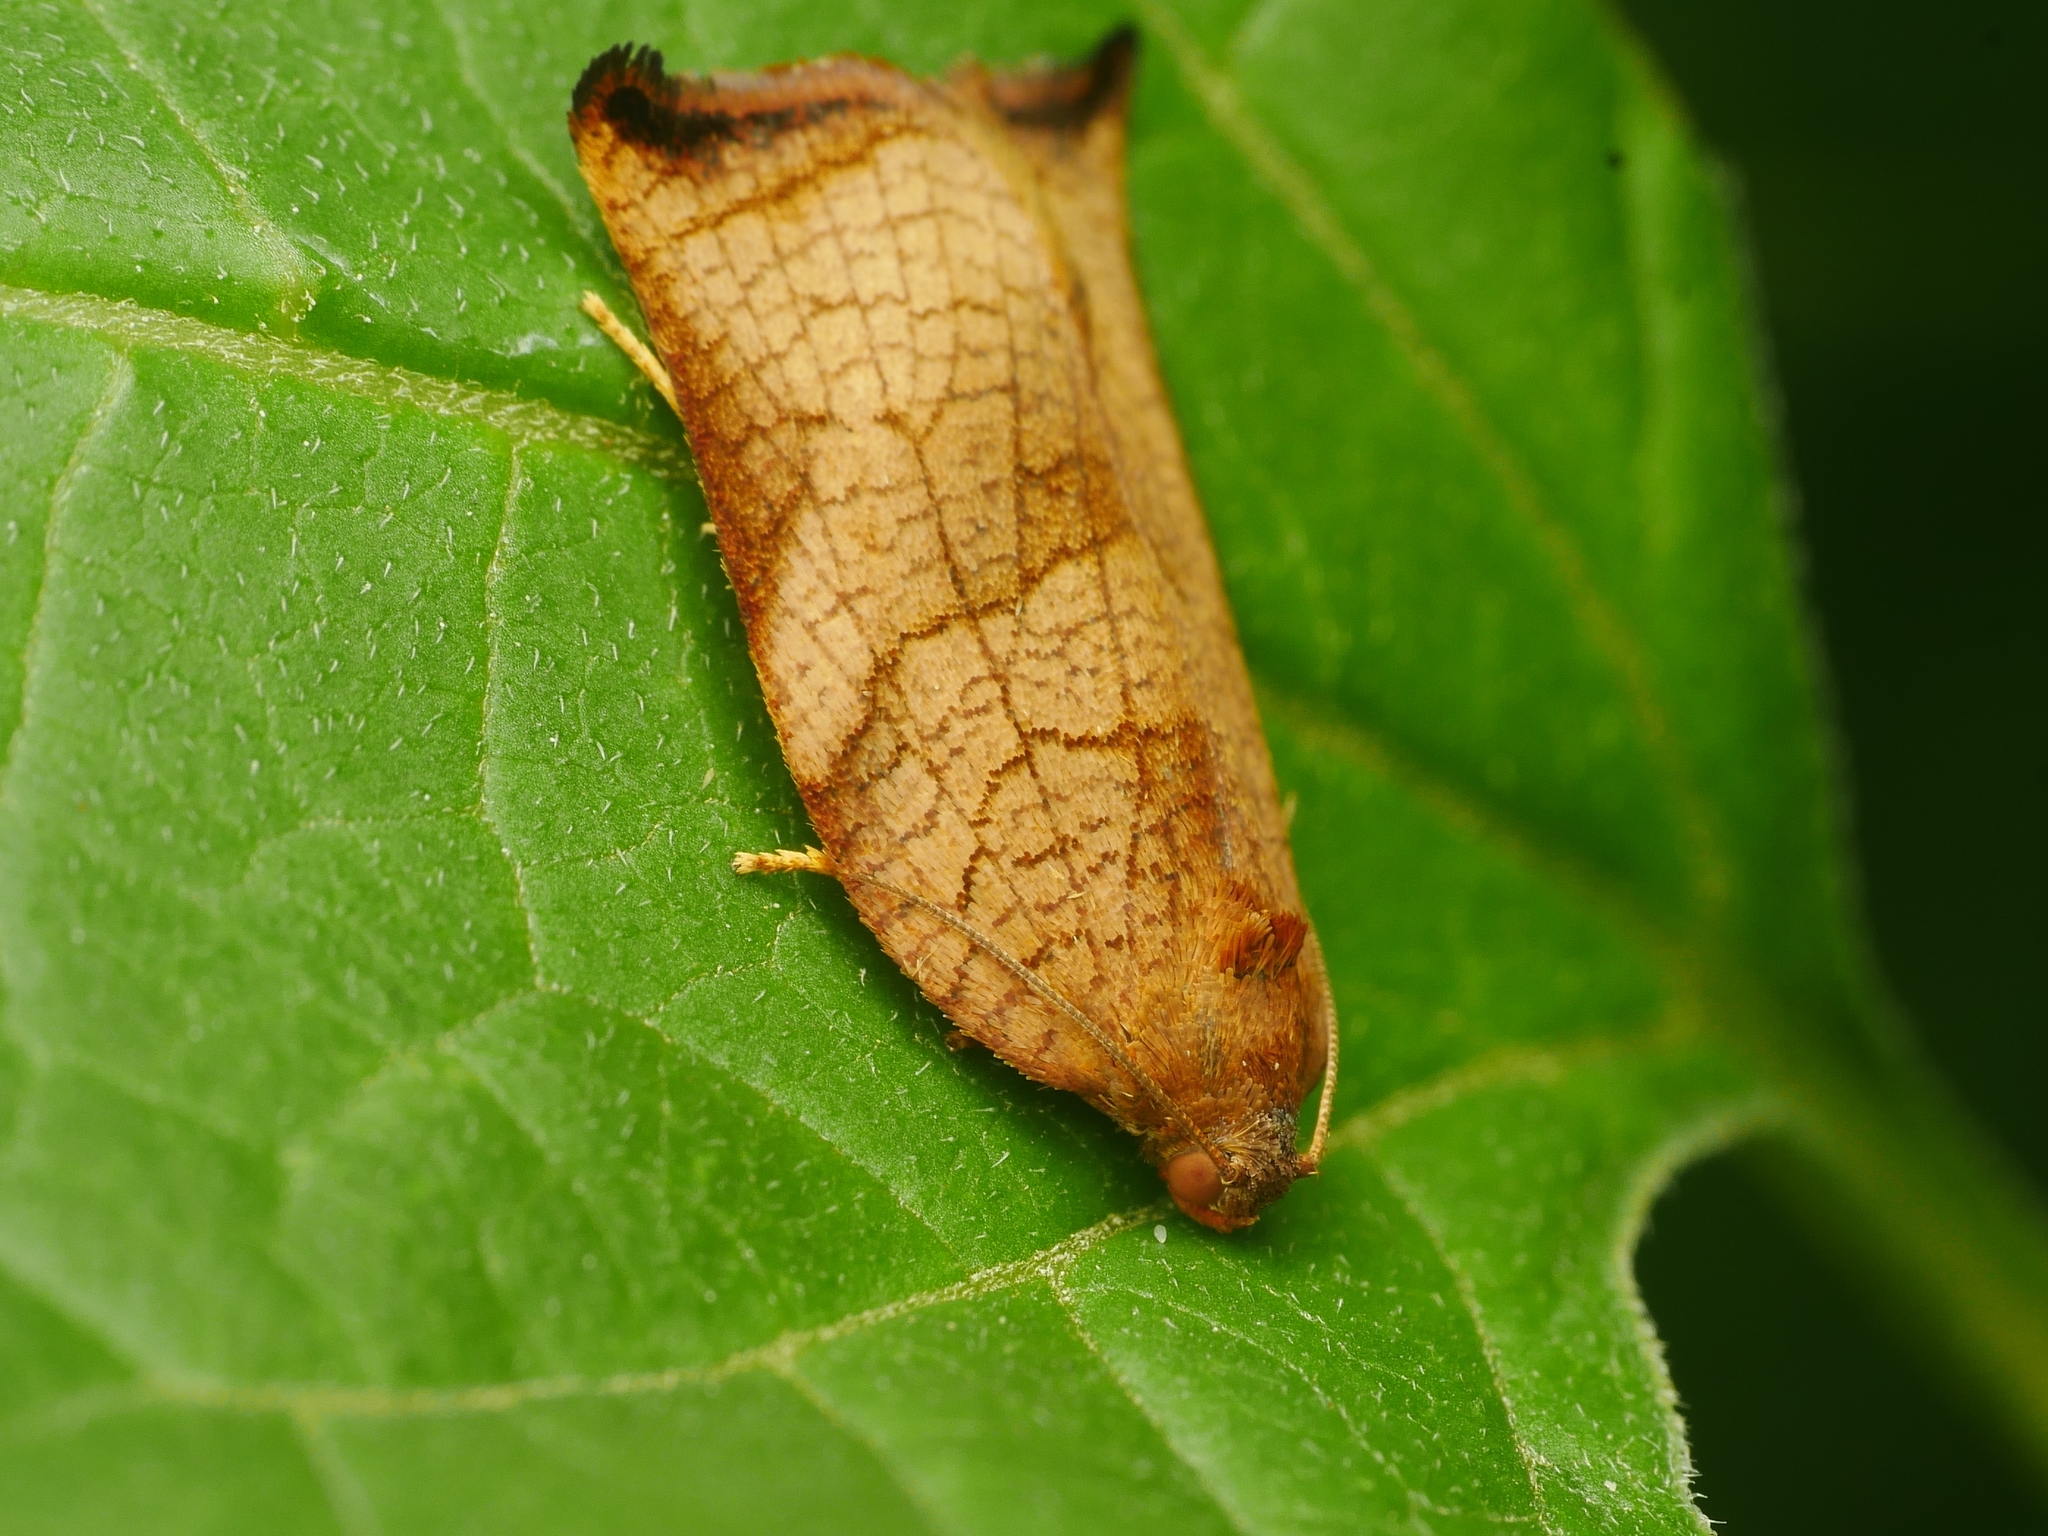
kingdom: Animalia
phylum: Arthropoda
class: Insecta
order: Lepidoptera
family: Tortricidae
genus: Archips
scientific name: Archips podana
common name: Large fruit-tree tortrix
